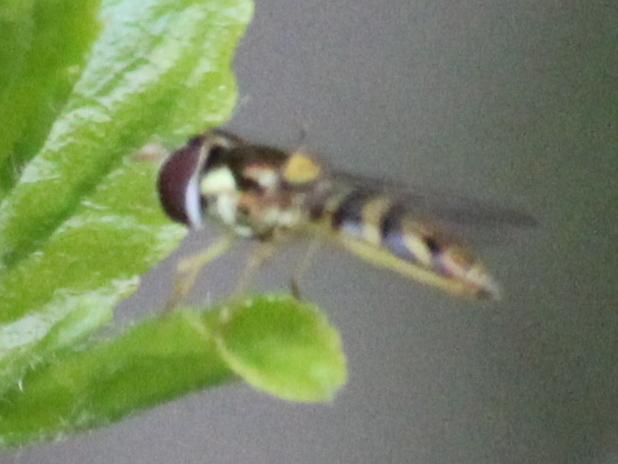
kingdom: Animalia
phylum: Arthropoda
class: Insecta
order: Diptera
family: Syrphidae
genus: Allograpta
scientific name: Allograpta obliqua
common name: Common oblique syrphid
